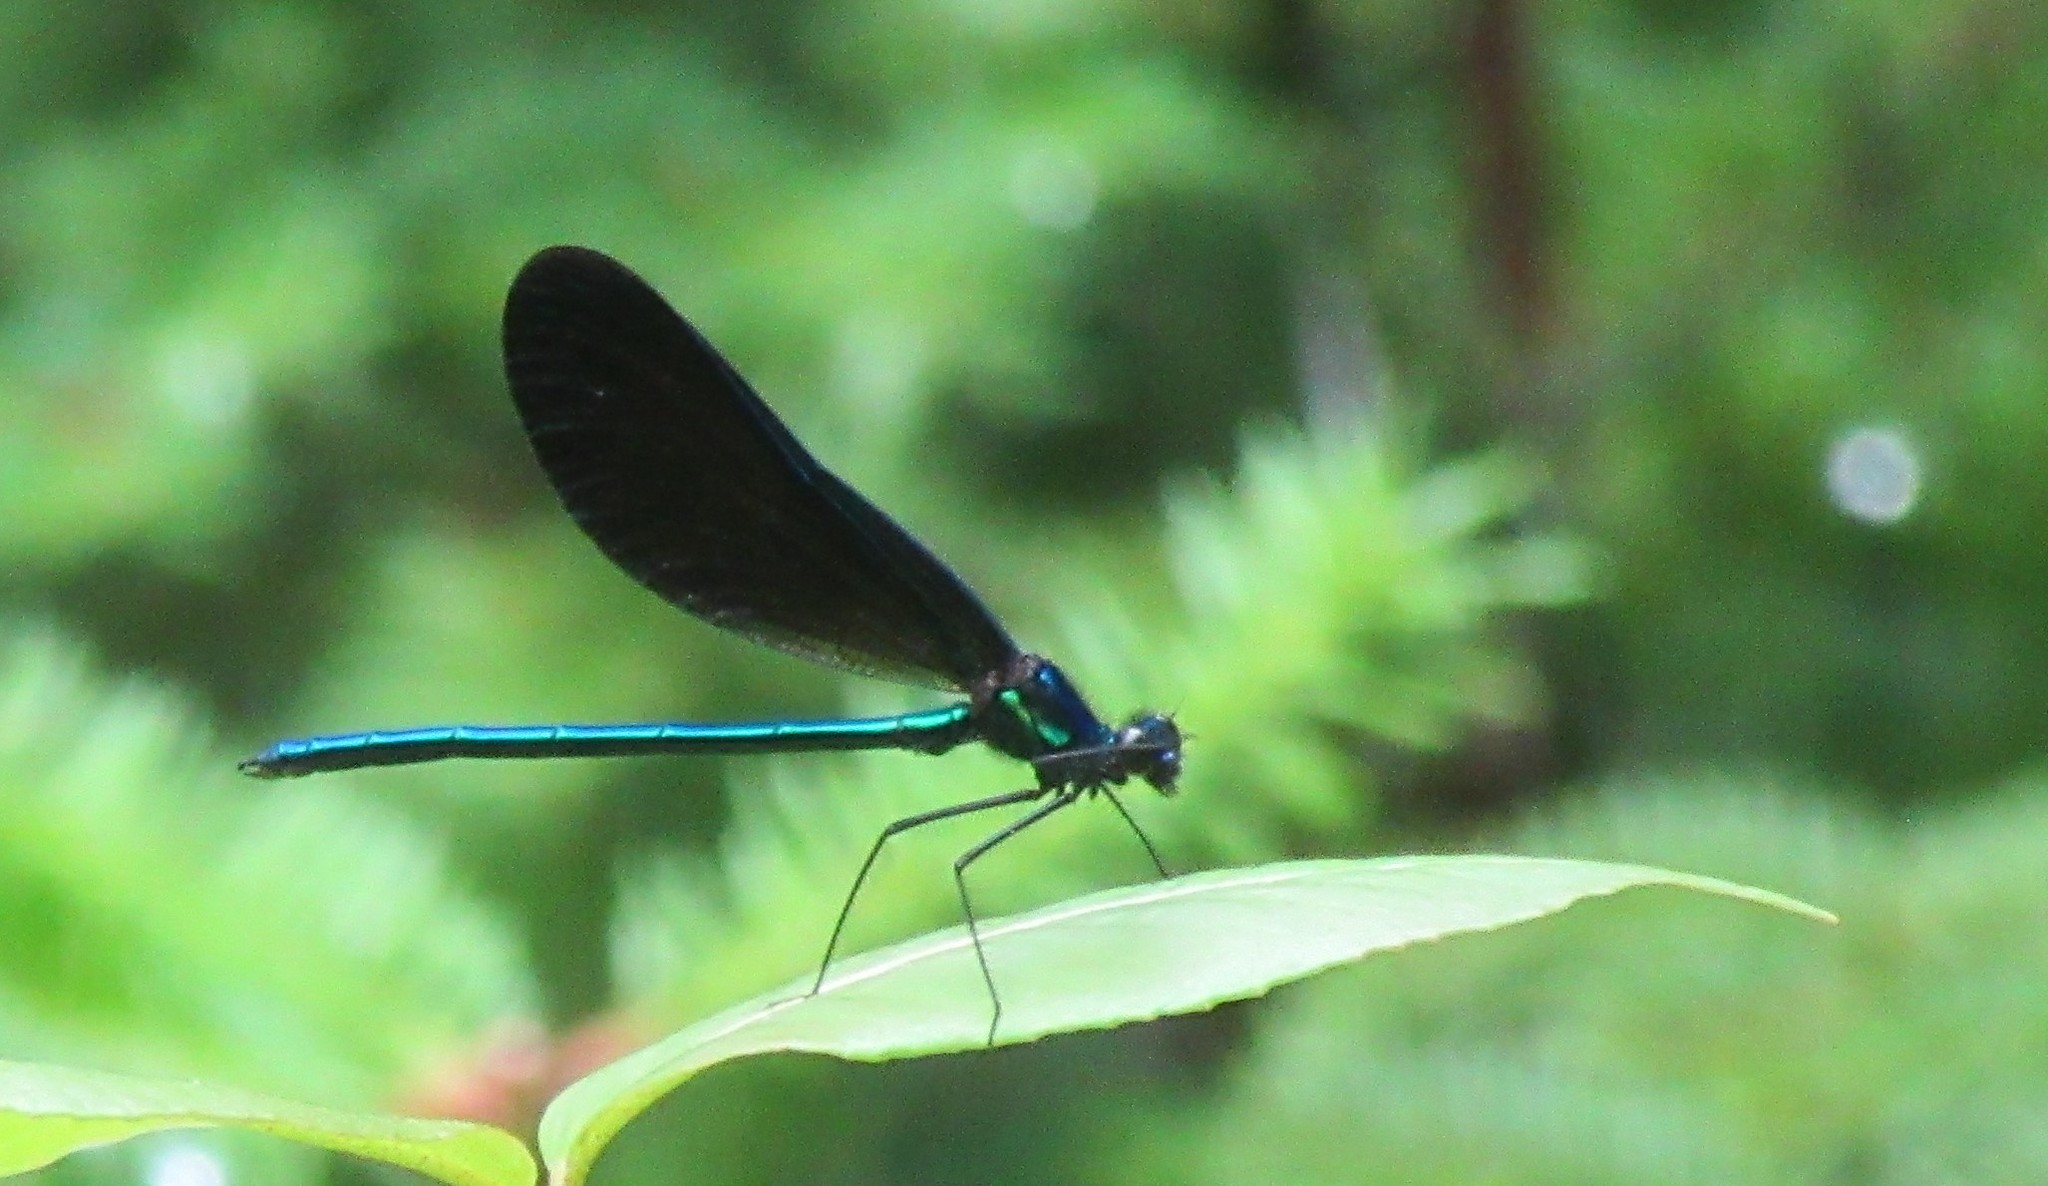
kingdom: Animalia
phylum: Arthropoda
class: Insecta
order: Odonata
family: Calopterygidae
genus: Calopteryx
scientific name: Calopteryx maculata
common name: Ebony jewelwing
